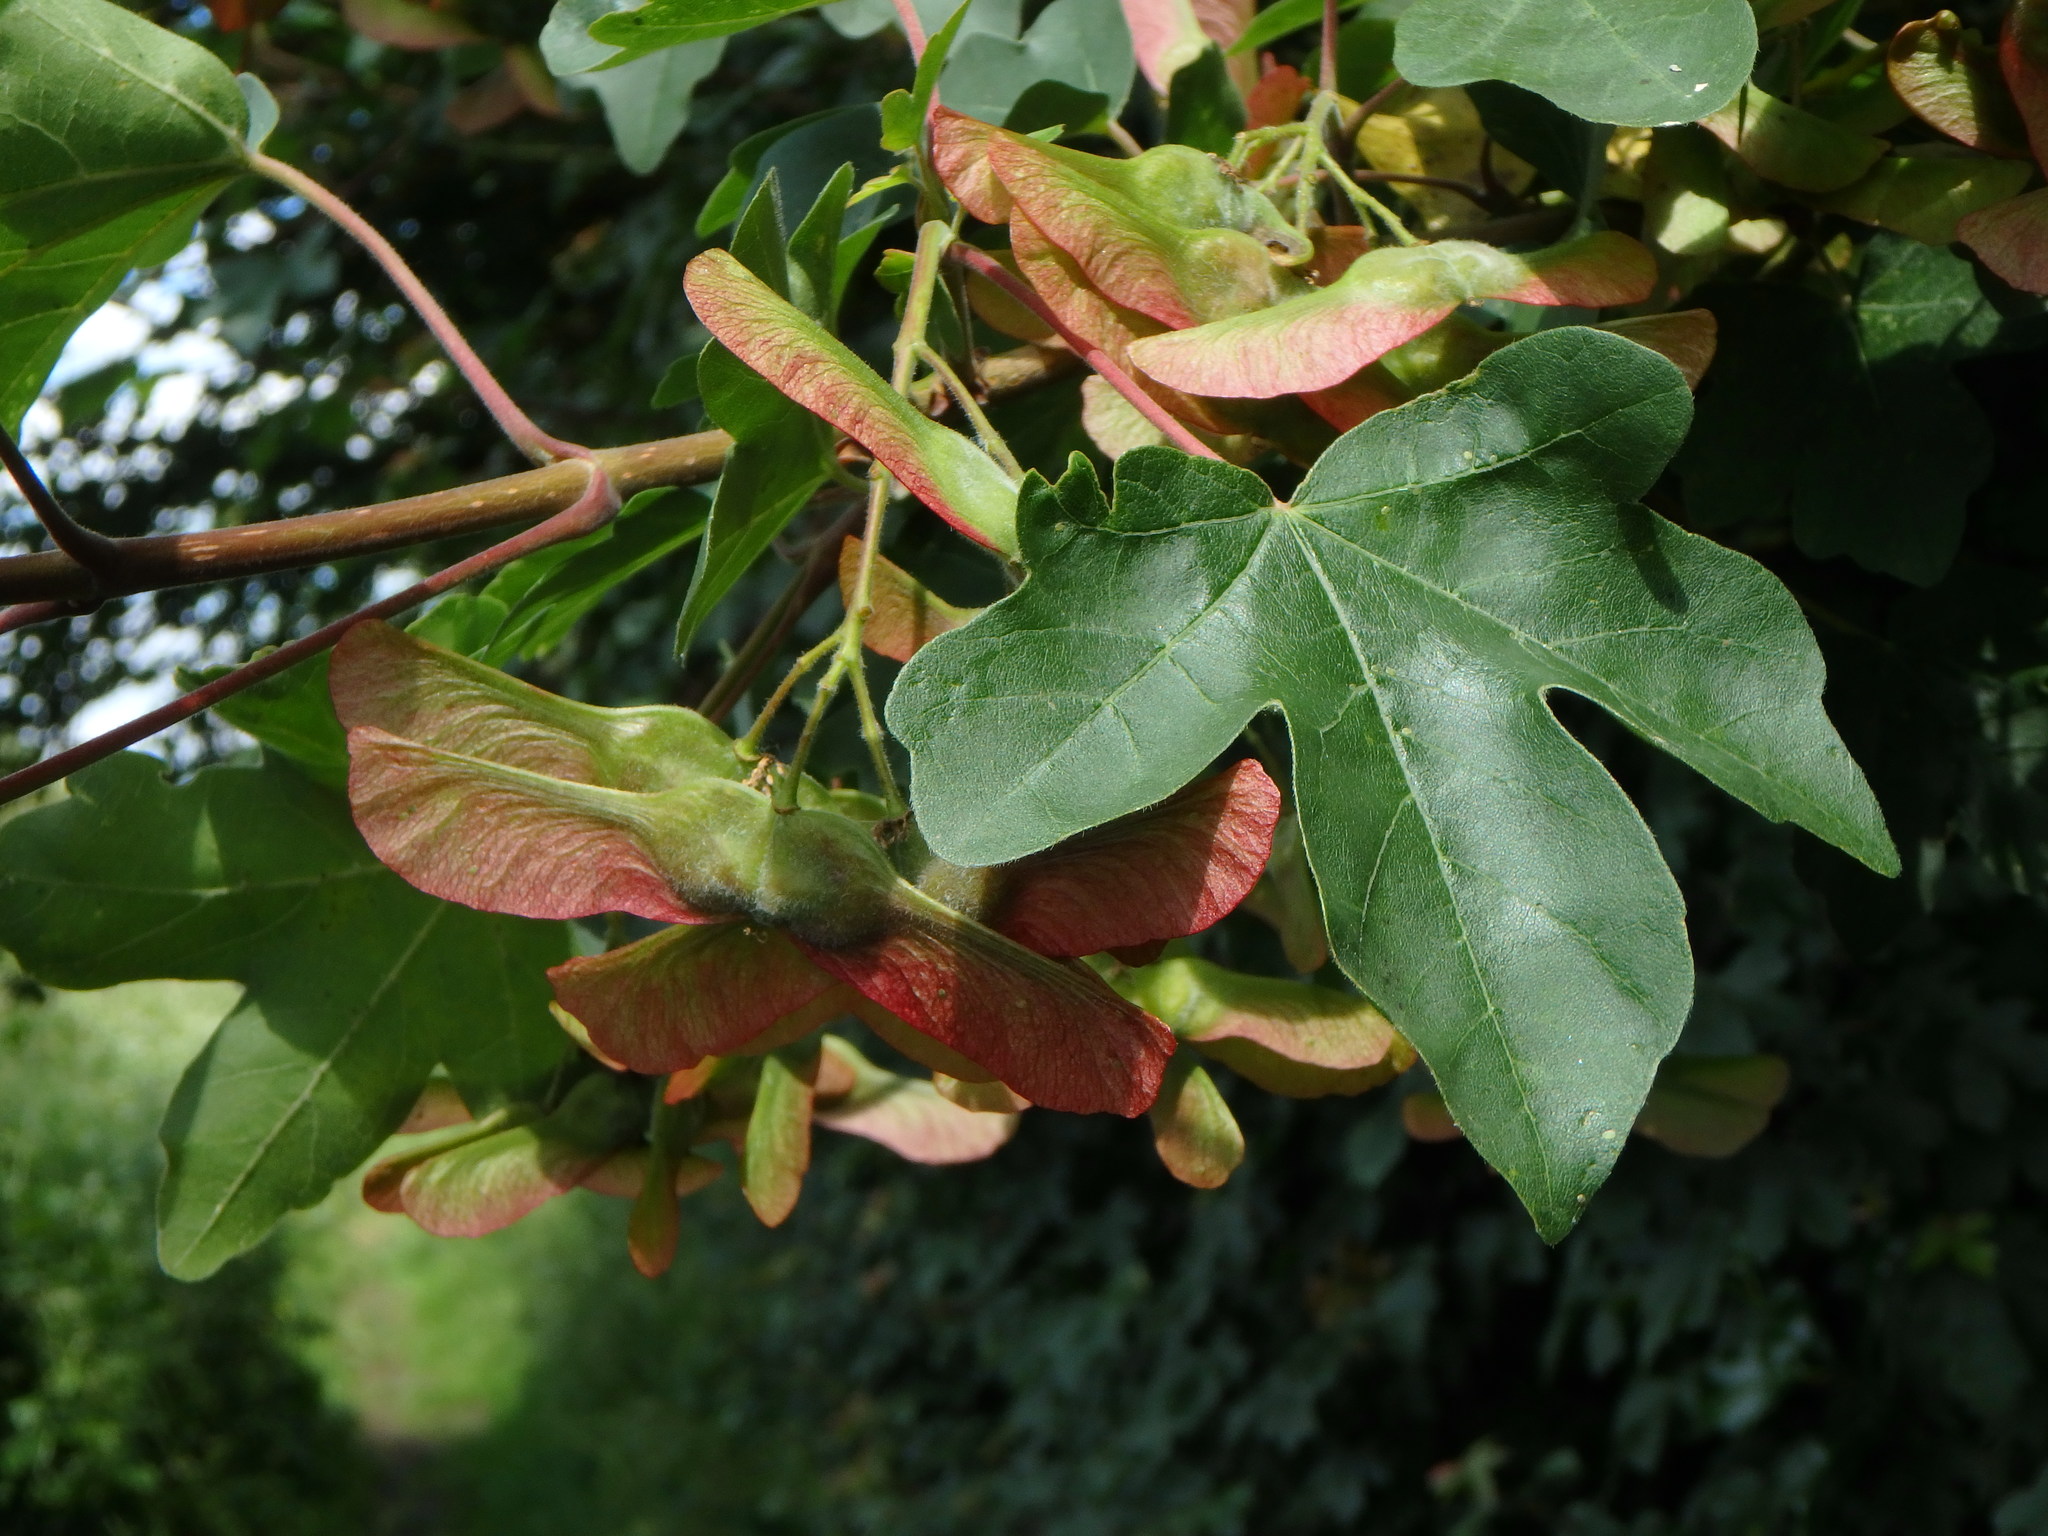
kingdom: Plantae
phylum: Tracheophyta
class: Magnoliopsida
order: Sapindales
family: Sapindaceae
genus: Acer
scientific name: Acer campestre
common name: Field maple
